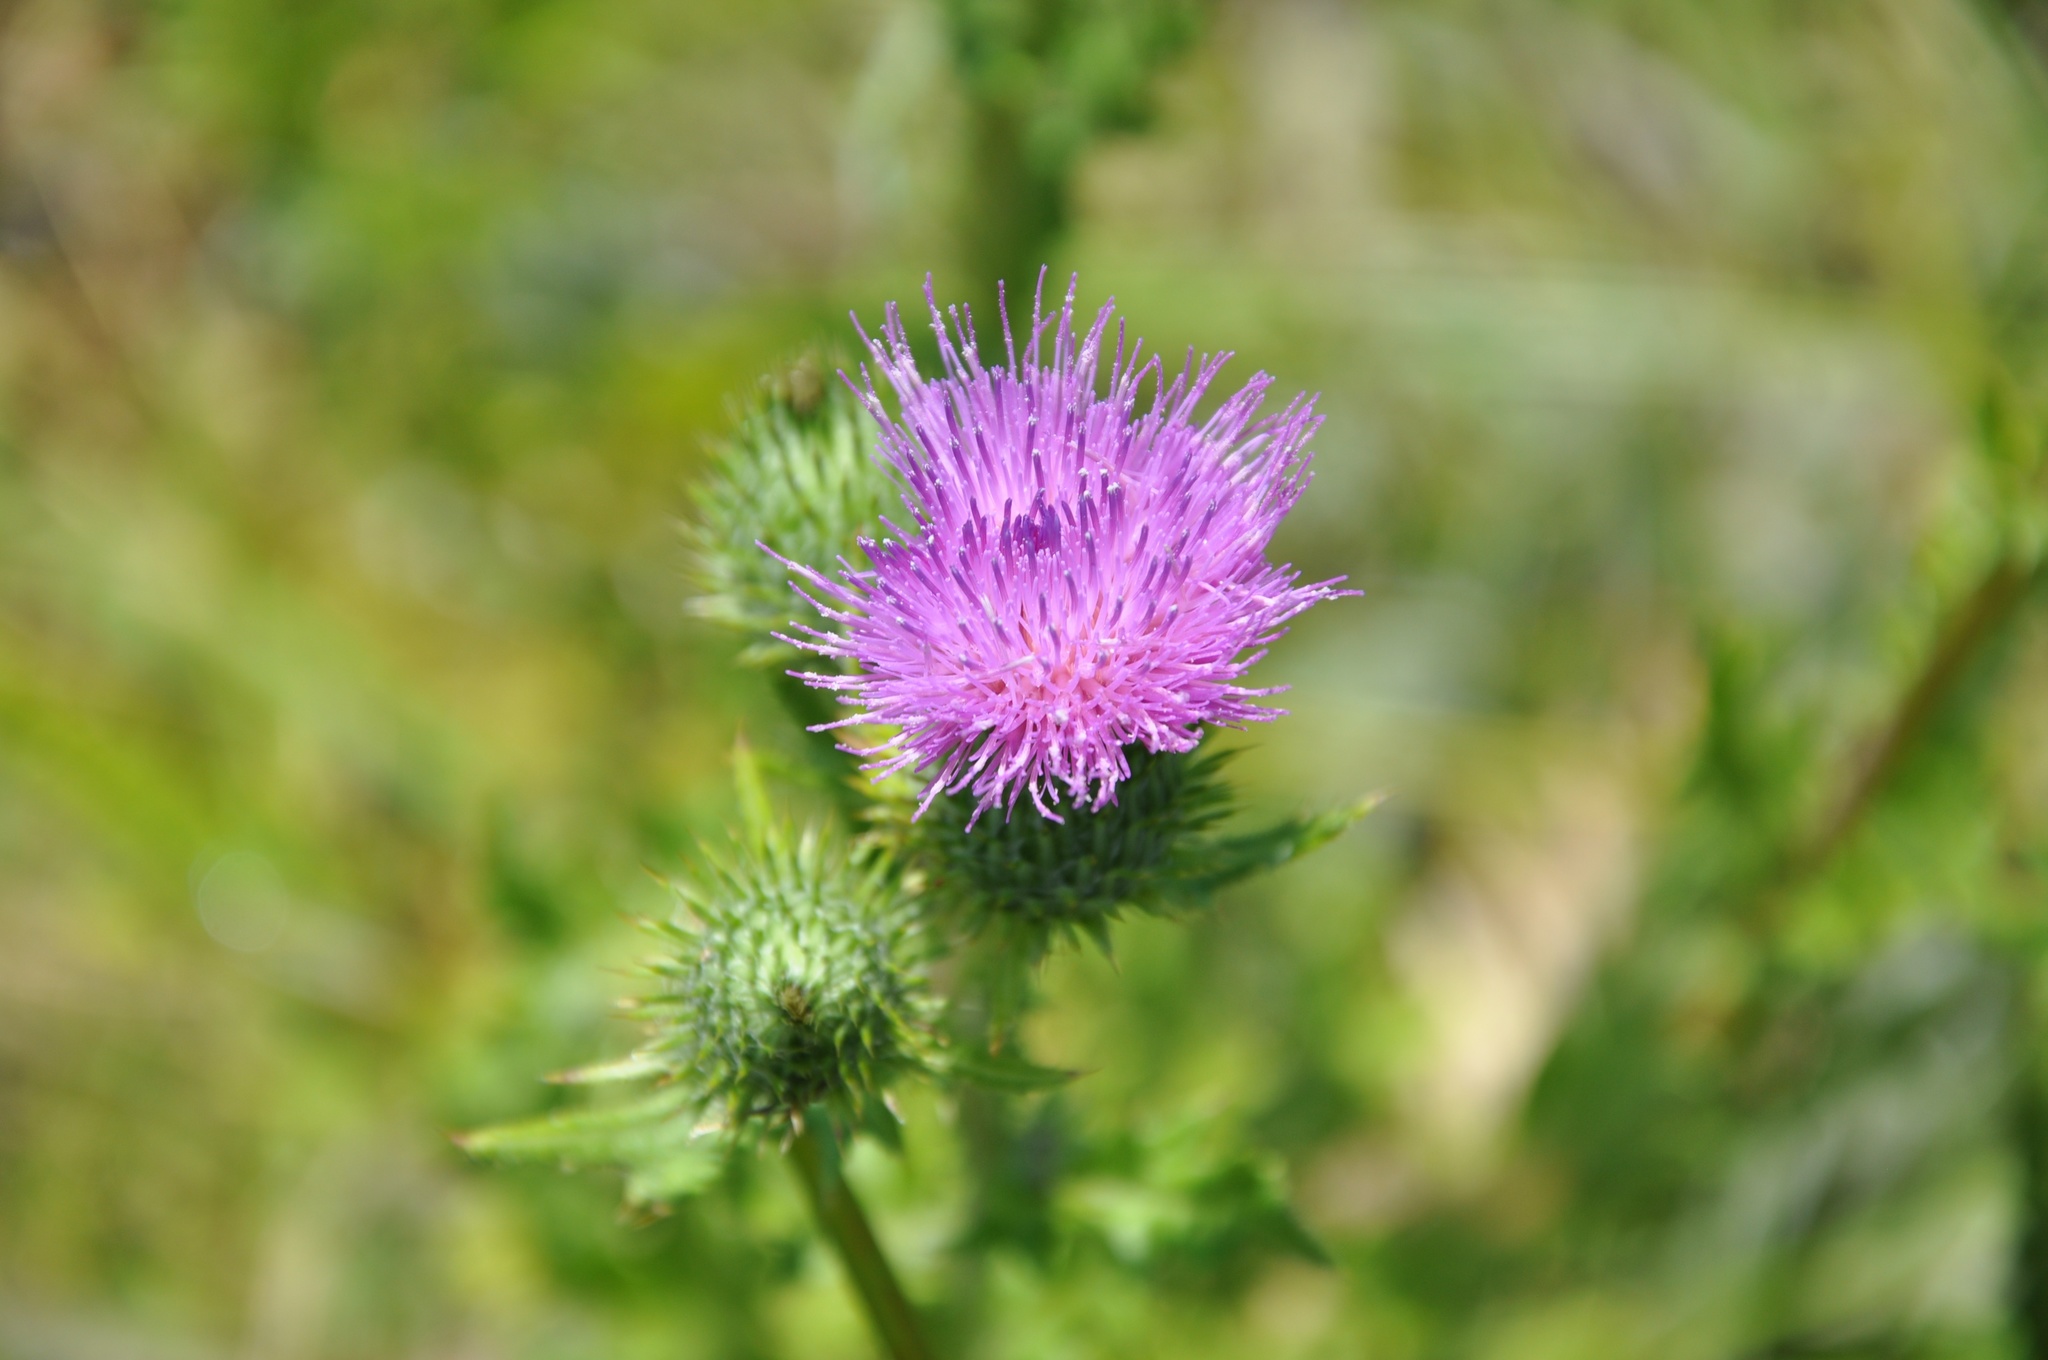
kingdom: Plantae
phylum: Tracheophyta
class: Magnoliopsida
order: Asterales
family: Asteraceae
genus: Cirsium
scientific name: Cirsium vulgare
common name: Bull thistle
